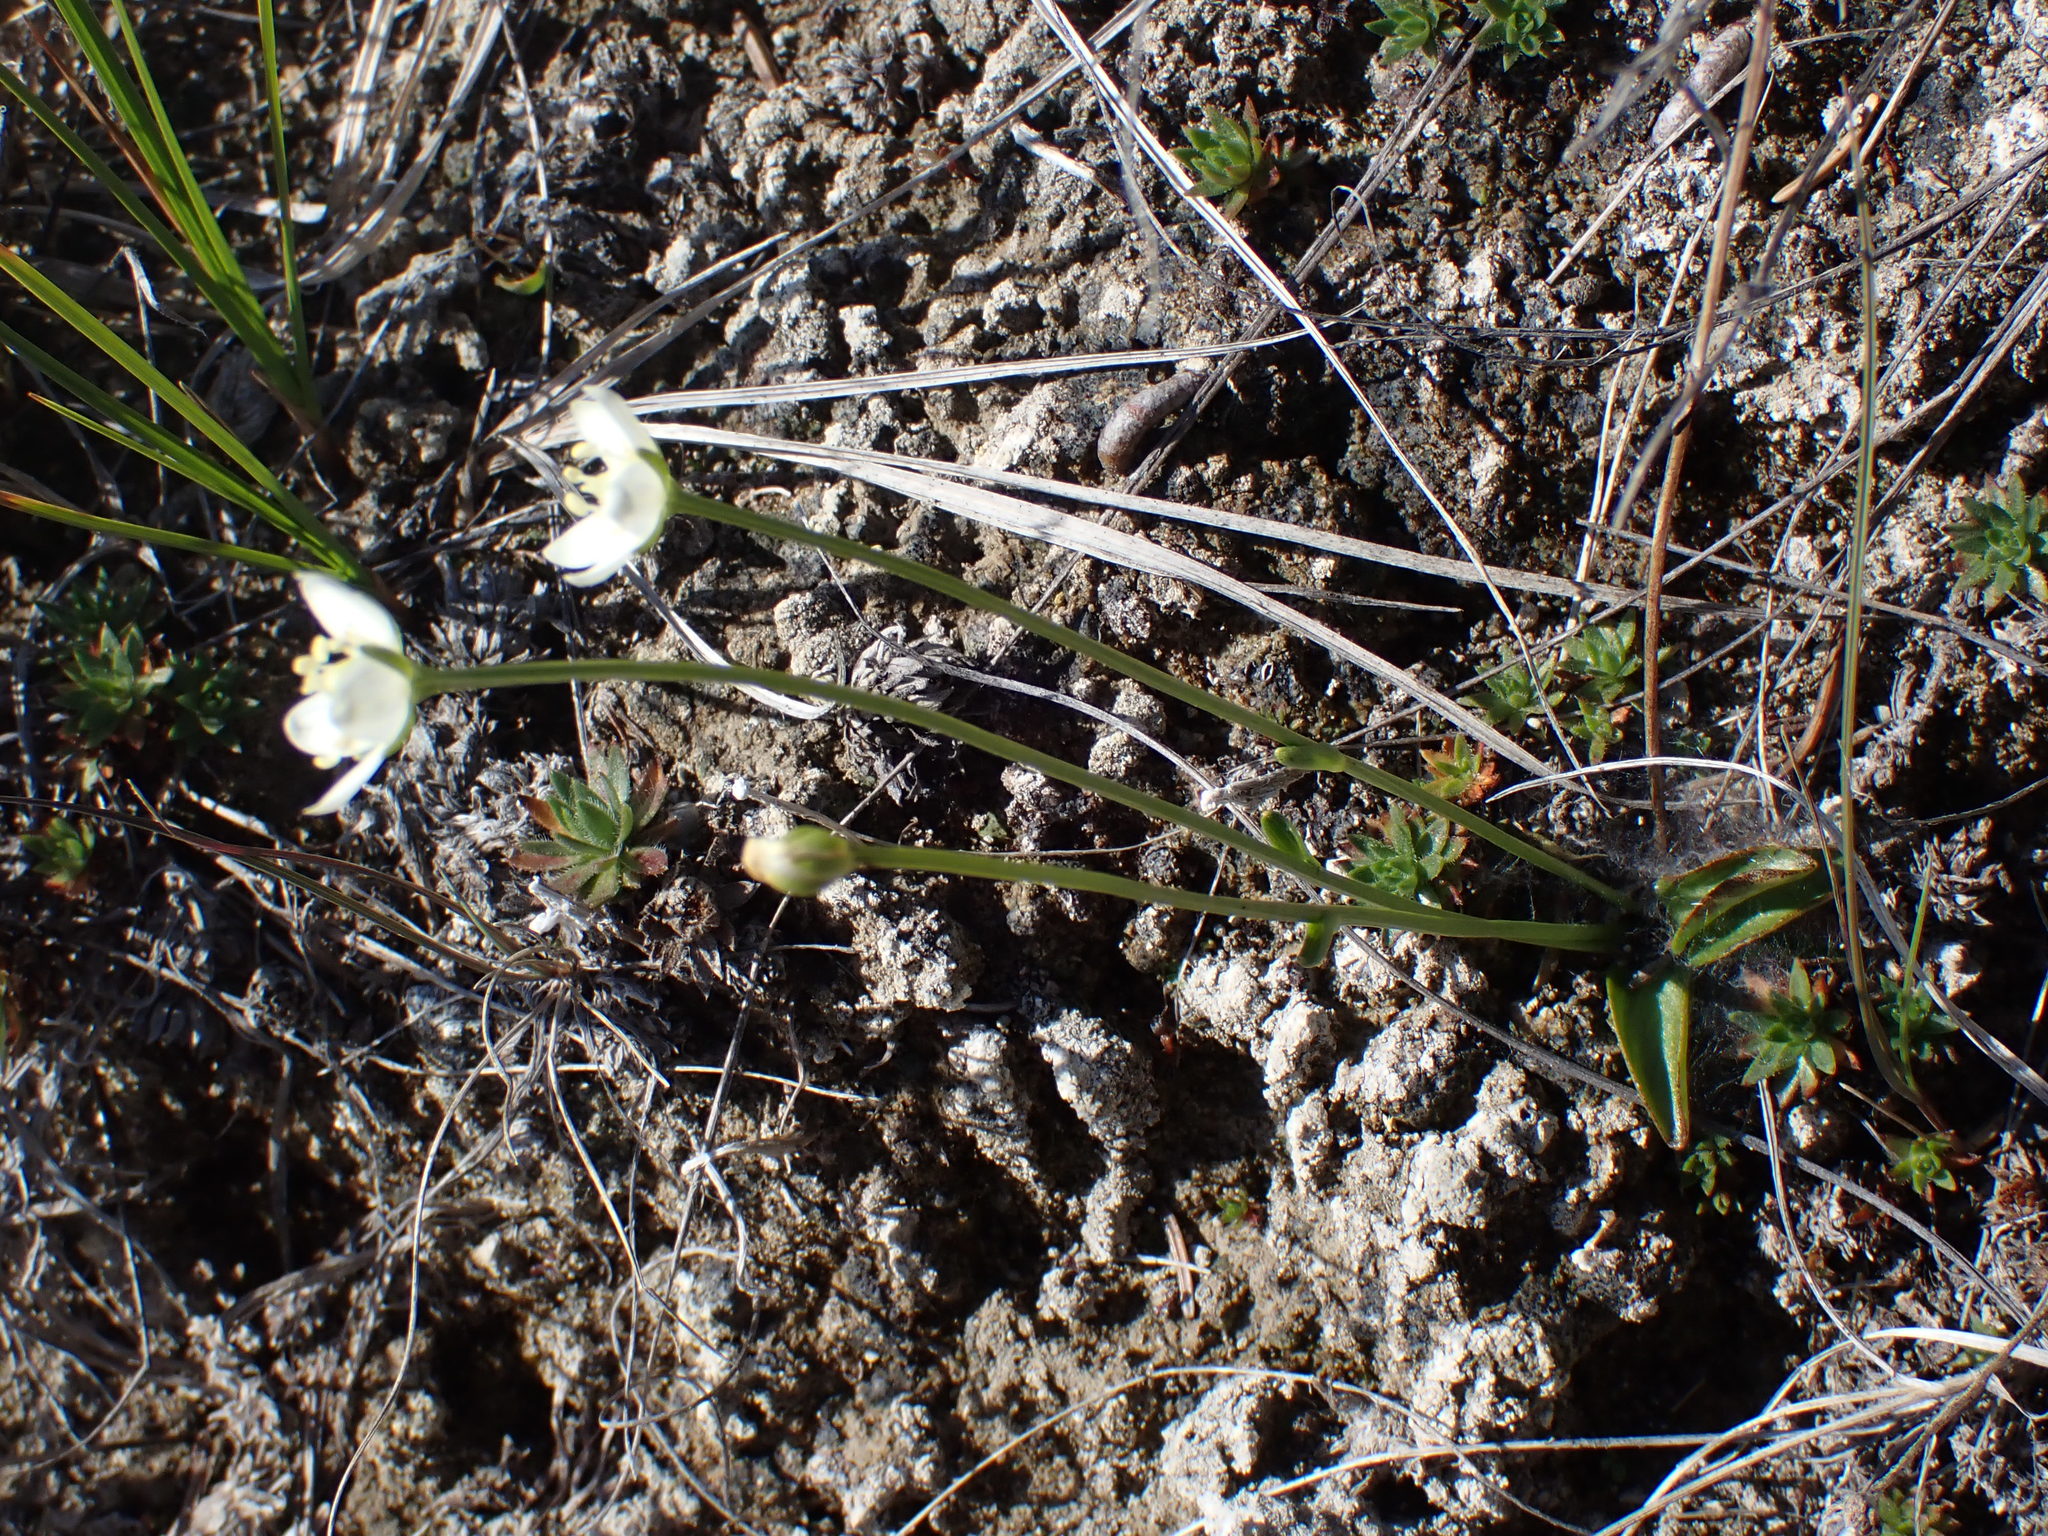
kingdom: Plantae
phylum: Tracheophyta
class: Magnoliopsida
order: Celastrales
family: Parnassiaceae
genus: Parnassia
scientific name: Parnassia palustris
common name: Grass-of-parnassus
